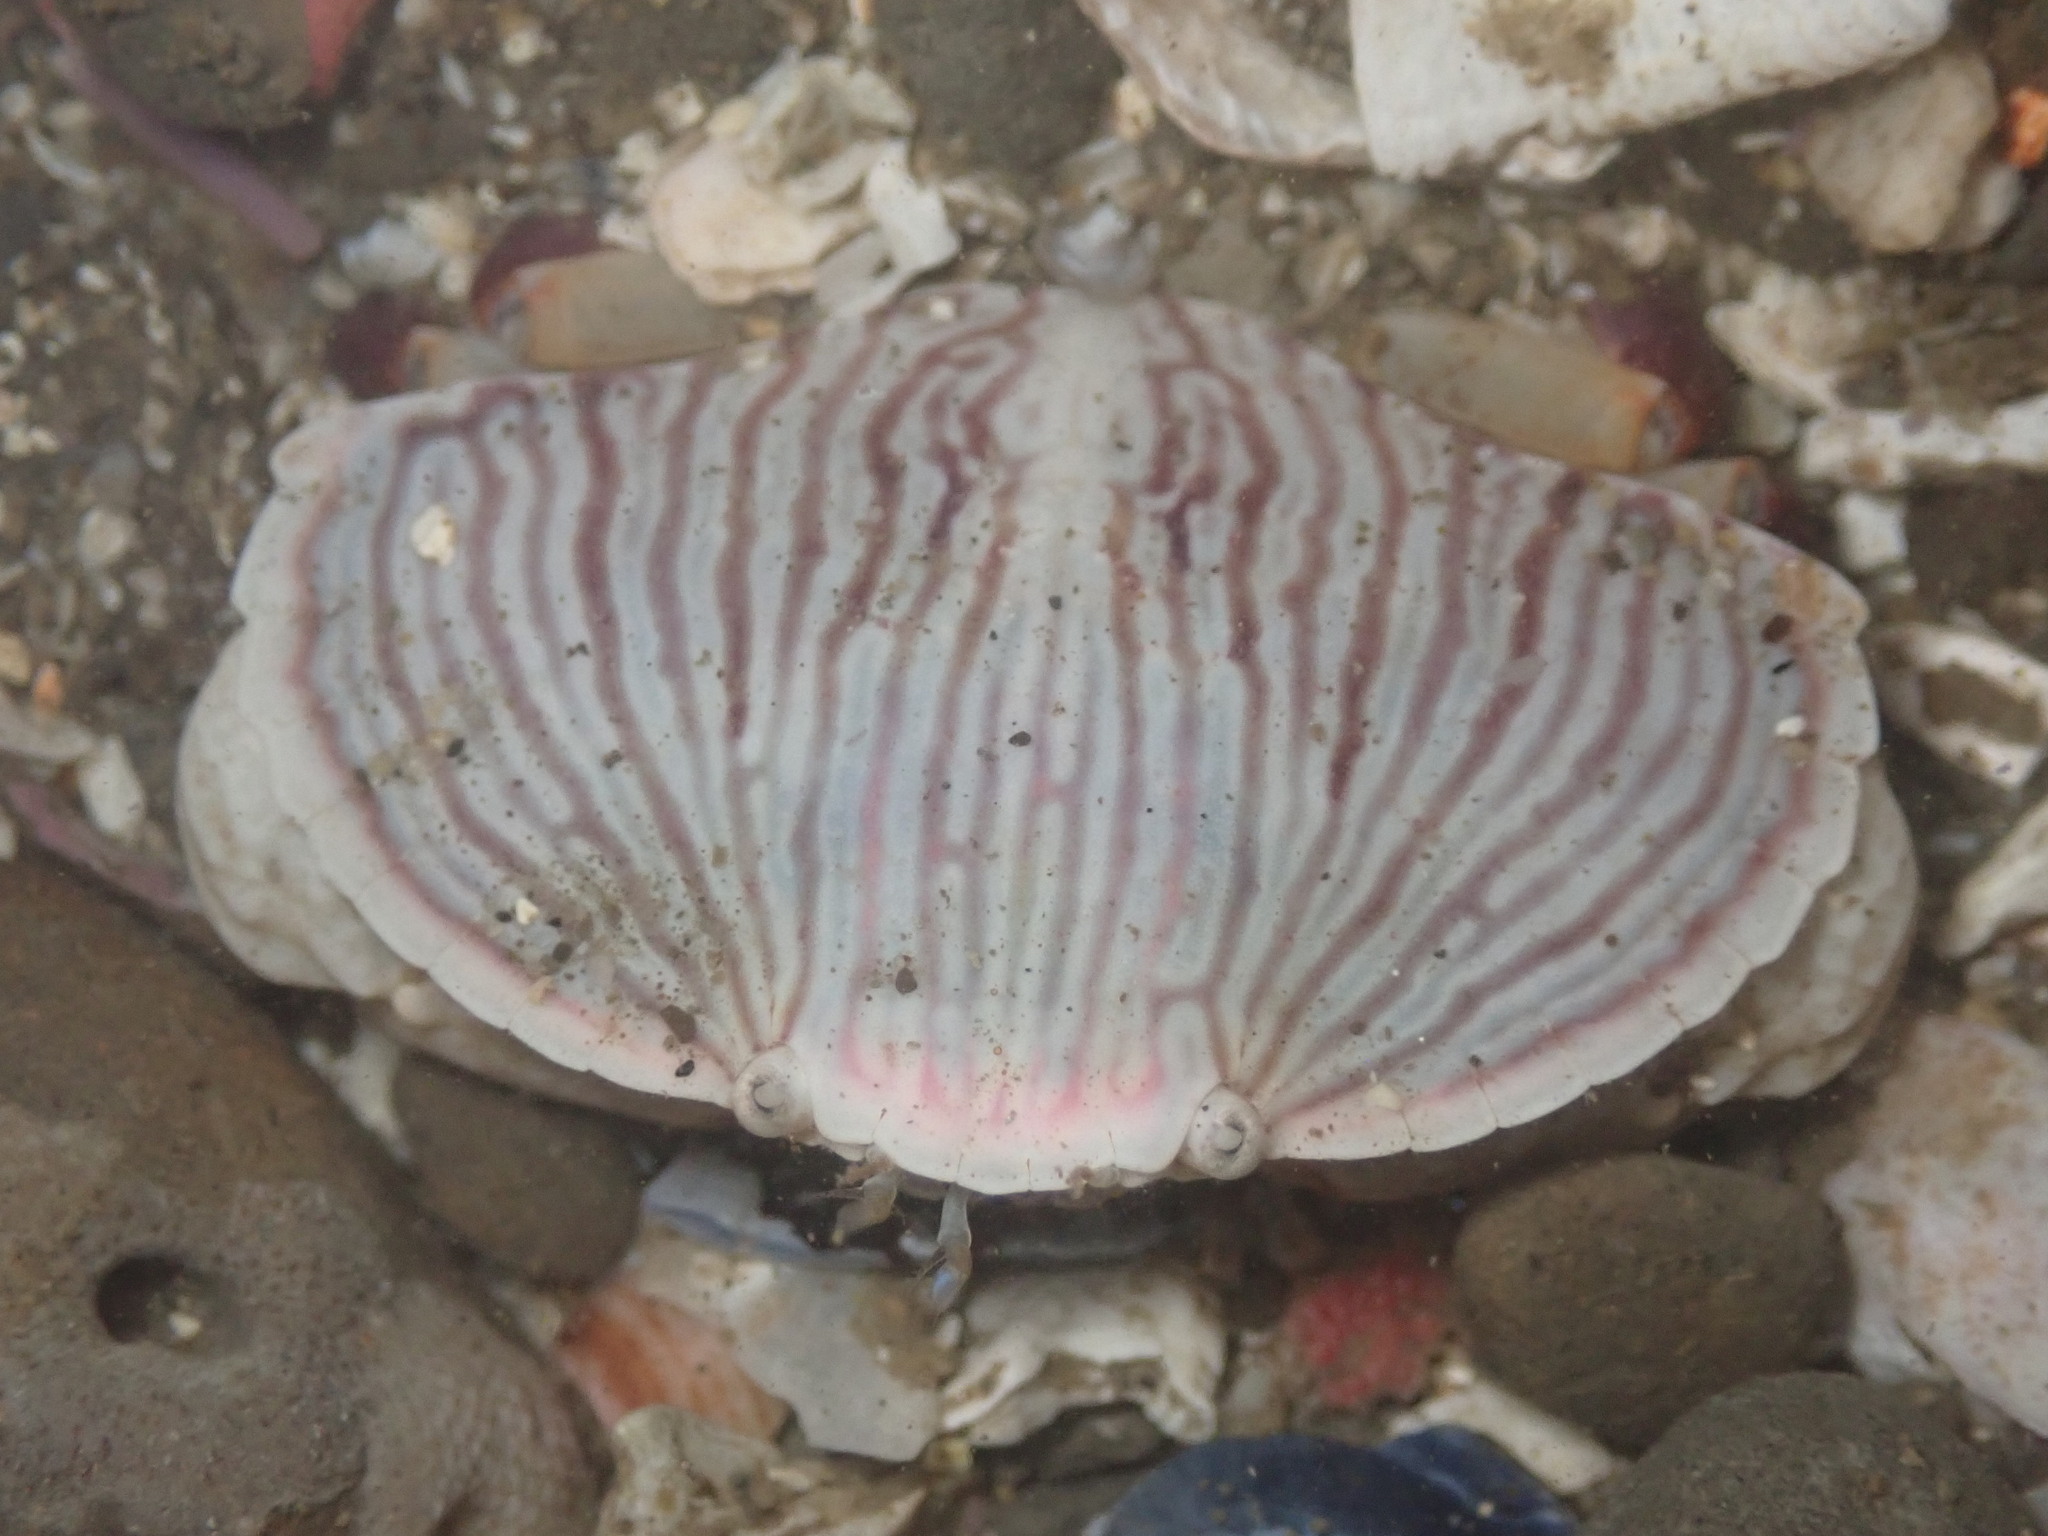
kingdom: Animalia
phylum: Arthropoda
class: Malacostraca
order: Decapoda
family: Cancridae
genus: Cancer
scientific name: Cancer productus
